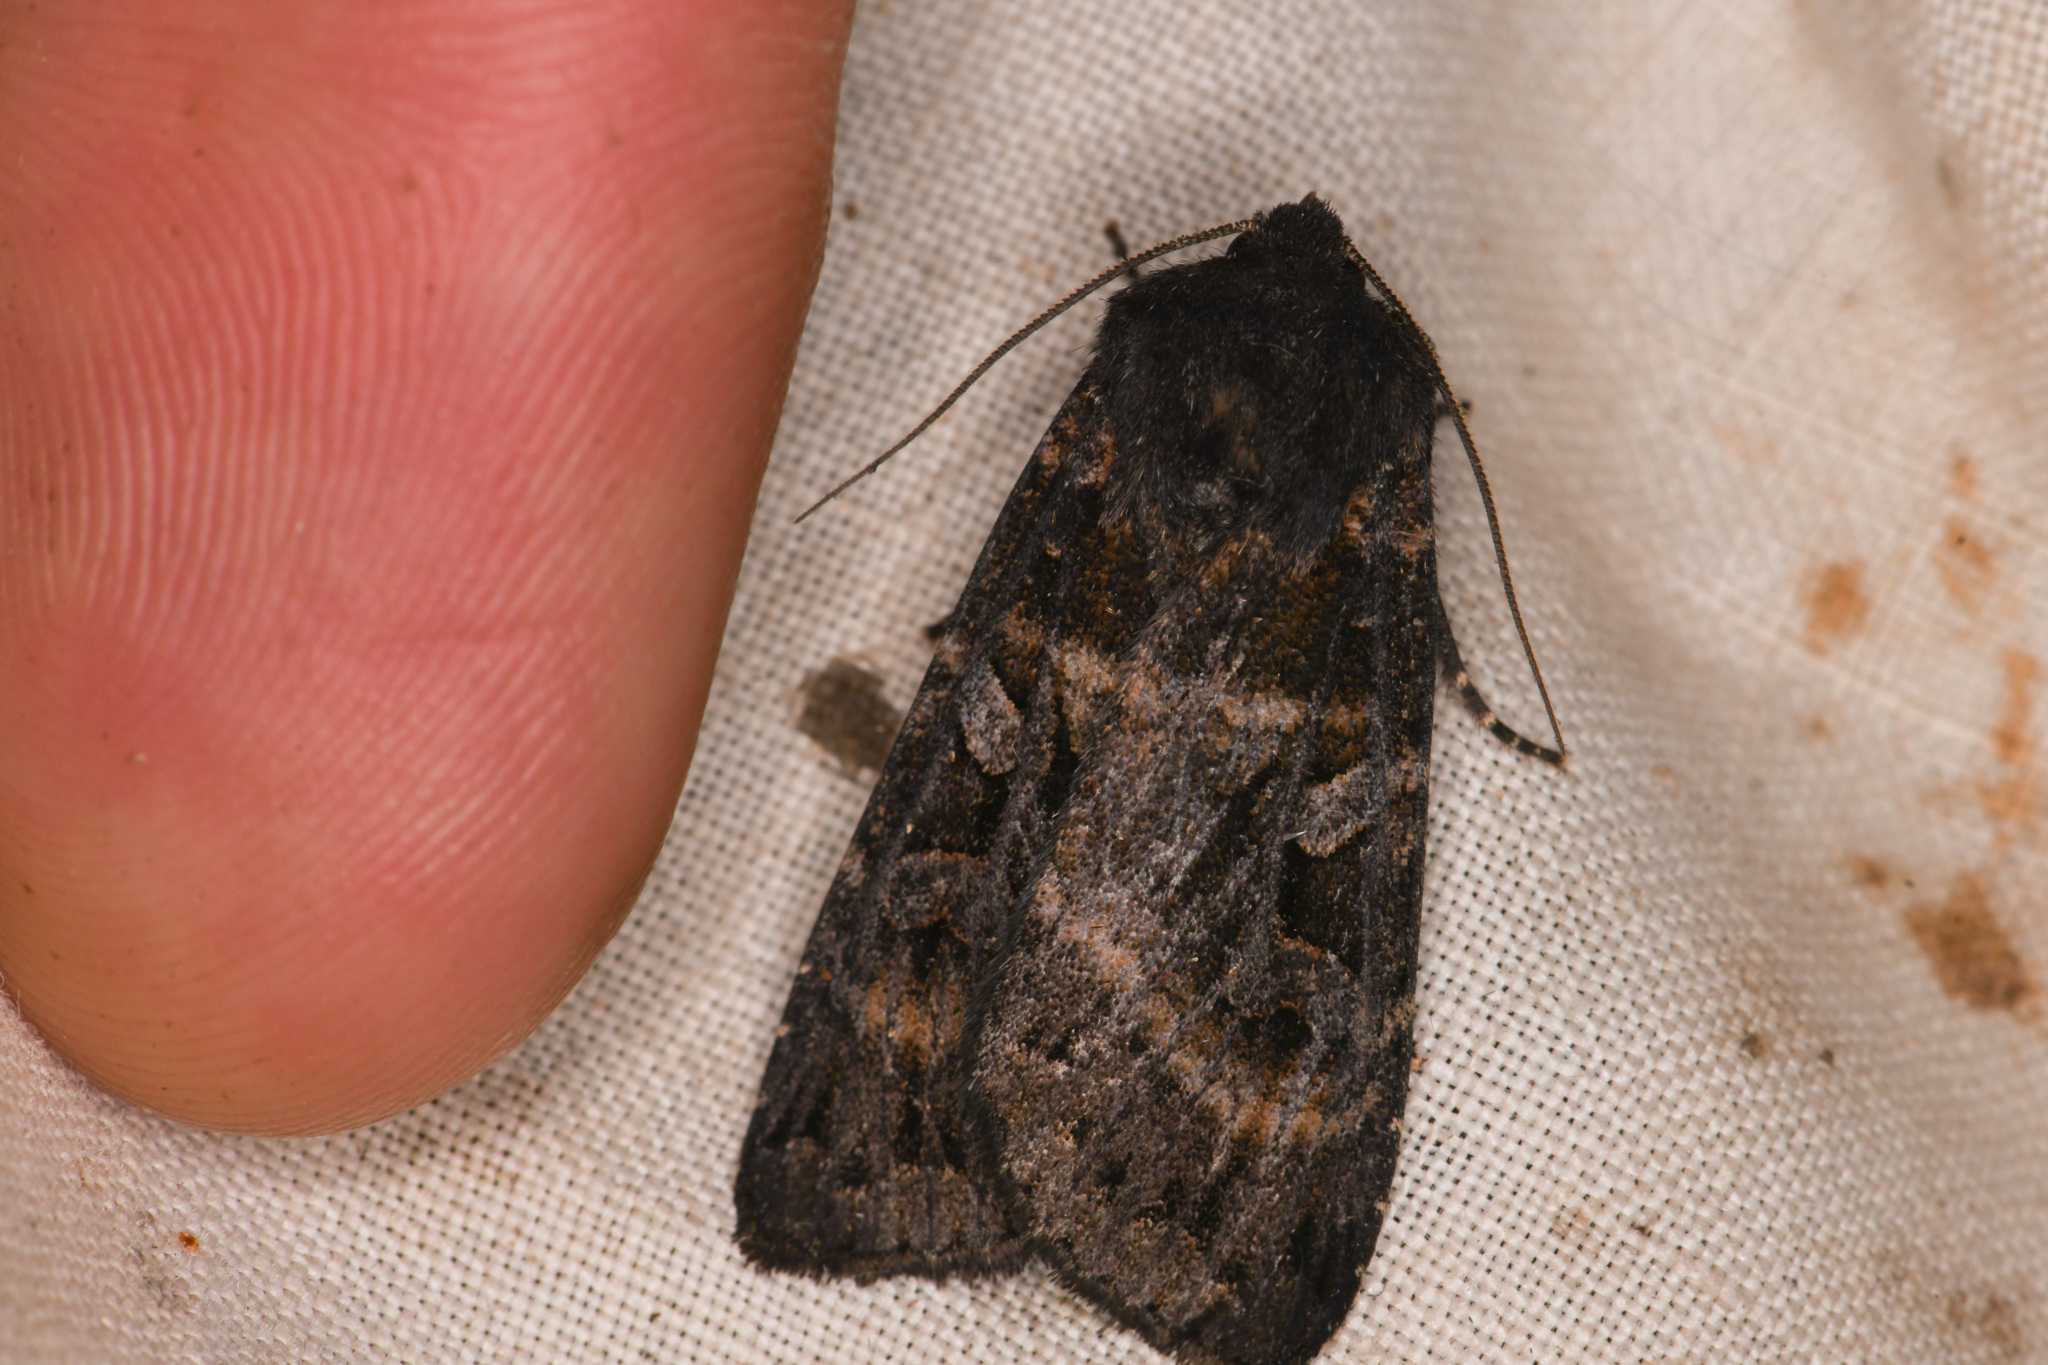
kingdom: Animalia
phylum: Arthropoda
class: Insecta
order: Lepidoptera
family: Noctuidae
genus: Eurois
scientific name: Eurois astricta
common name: Great brown dart
